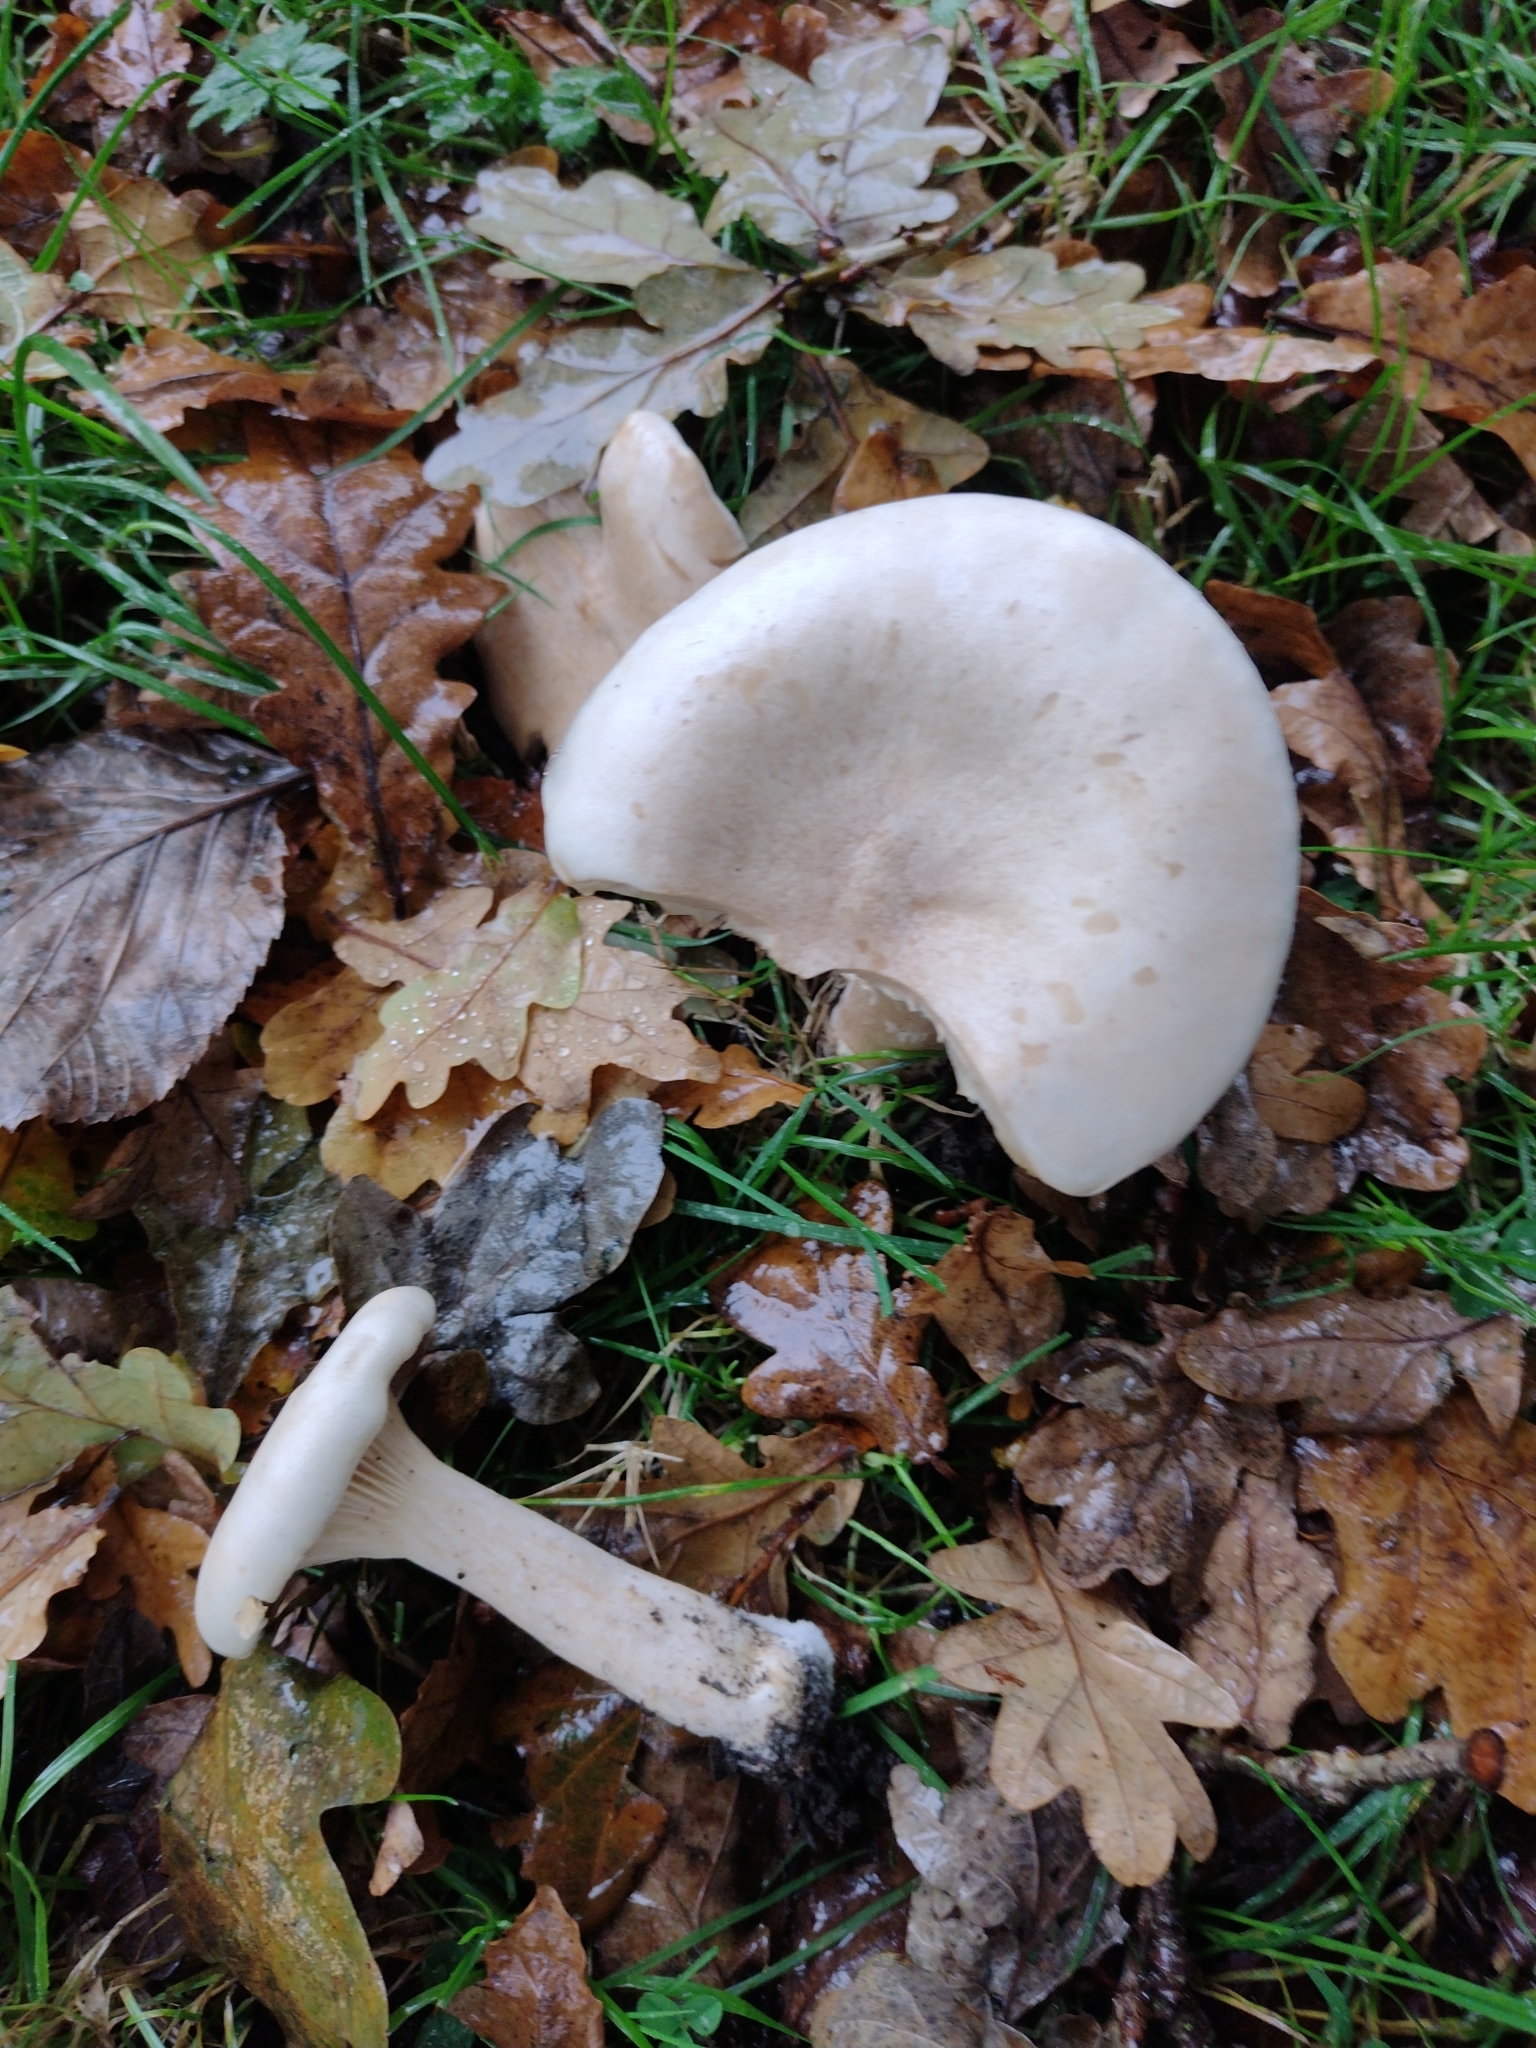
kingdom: Fungi
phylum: Basidiomycota
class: Agaricomycetes
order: Agaricales
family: Tricholomataceae
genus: Infundibulicybe
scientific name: Infundibulicybe geotropa
